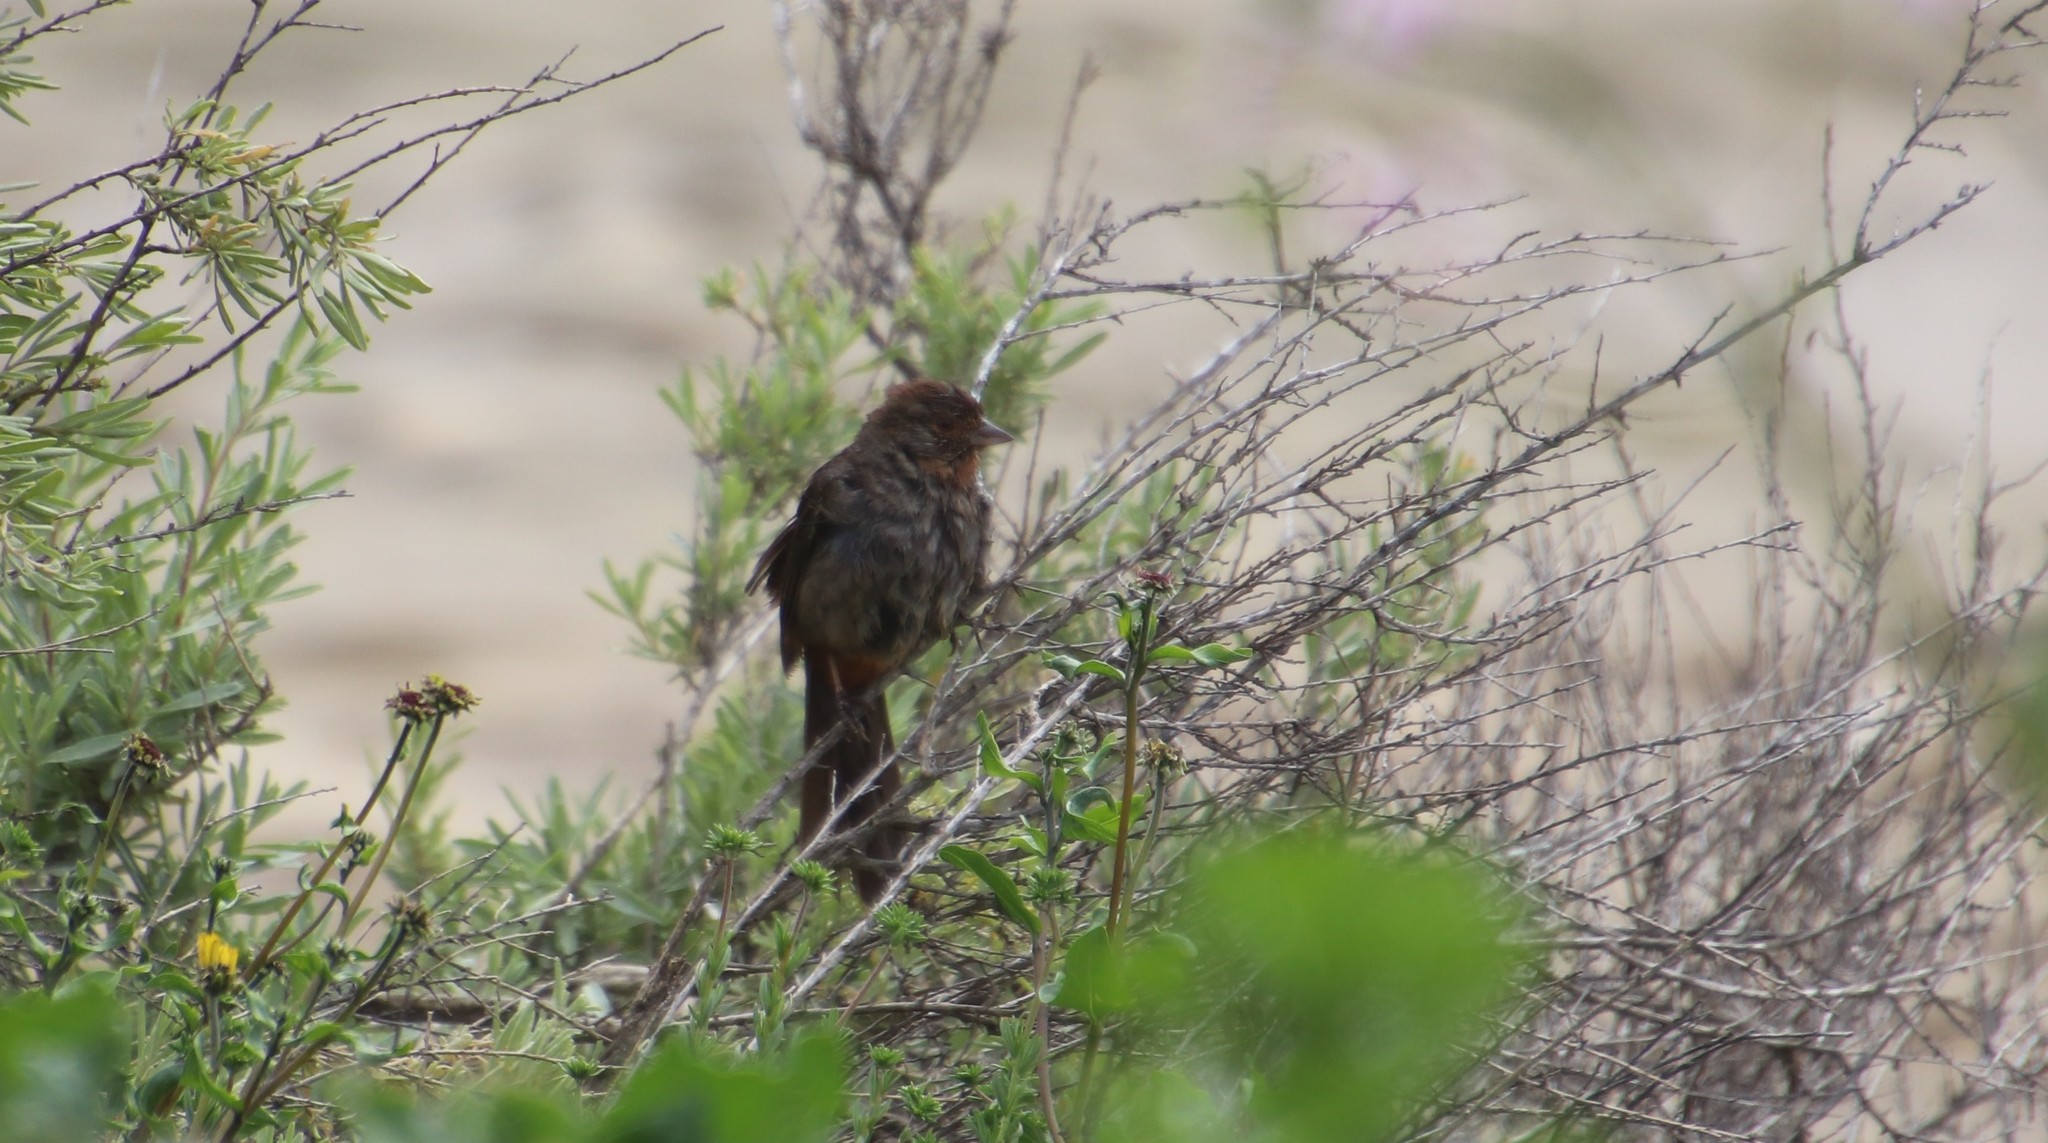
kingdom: Animalia
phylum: Chordata
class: Aves
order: Passeriformes
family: Passerellidae
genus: Melozone
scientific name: Melozone crissalis
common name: California towhee
